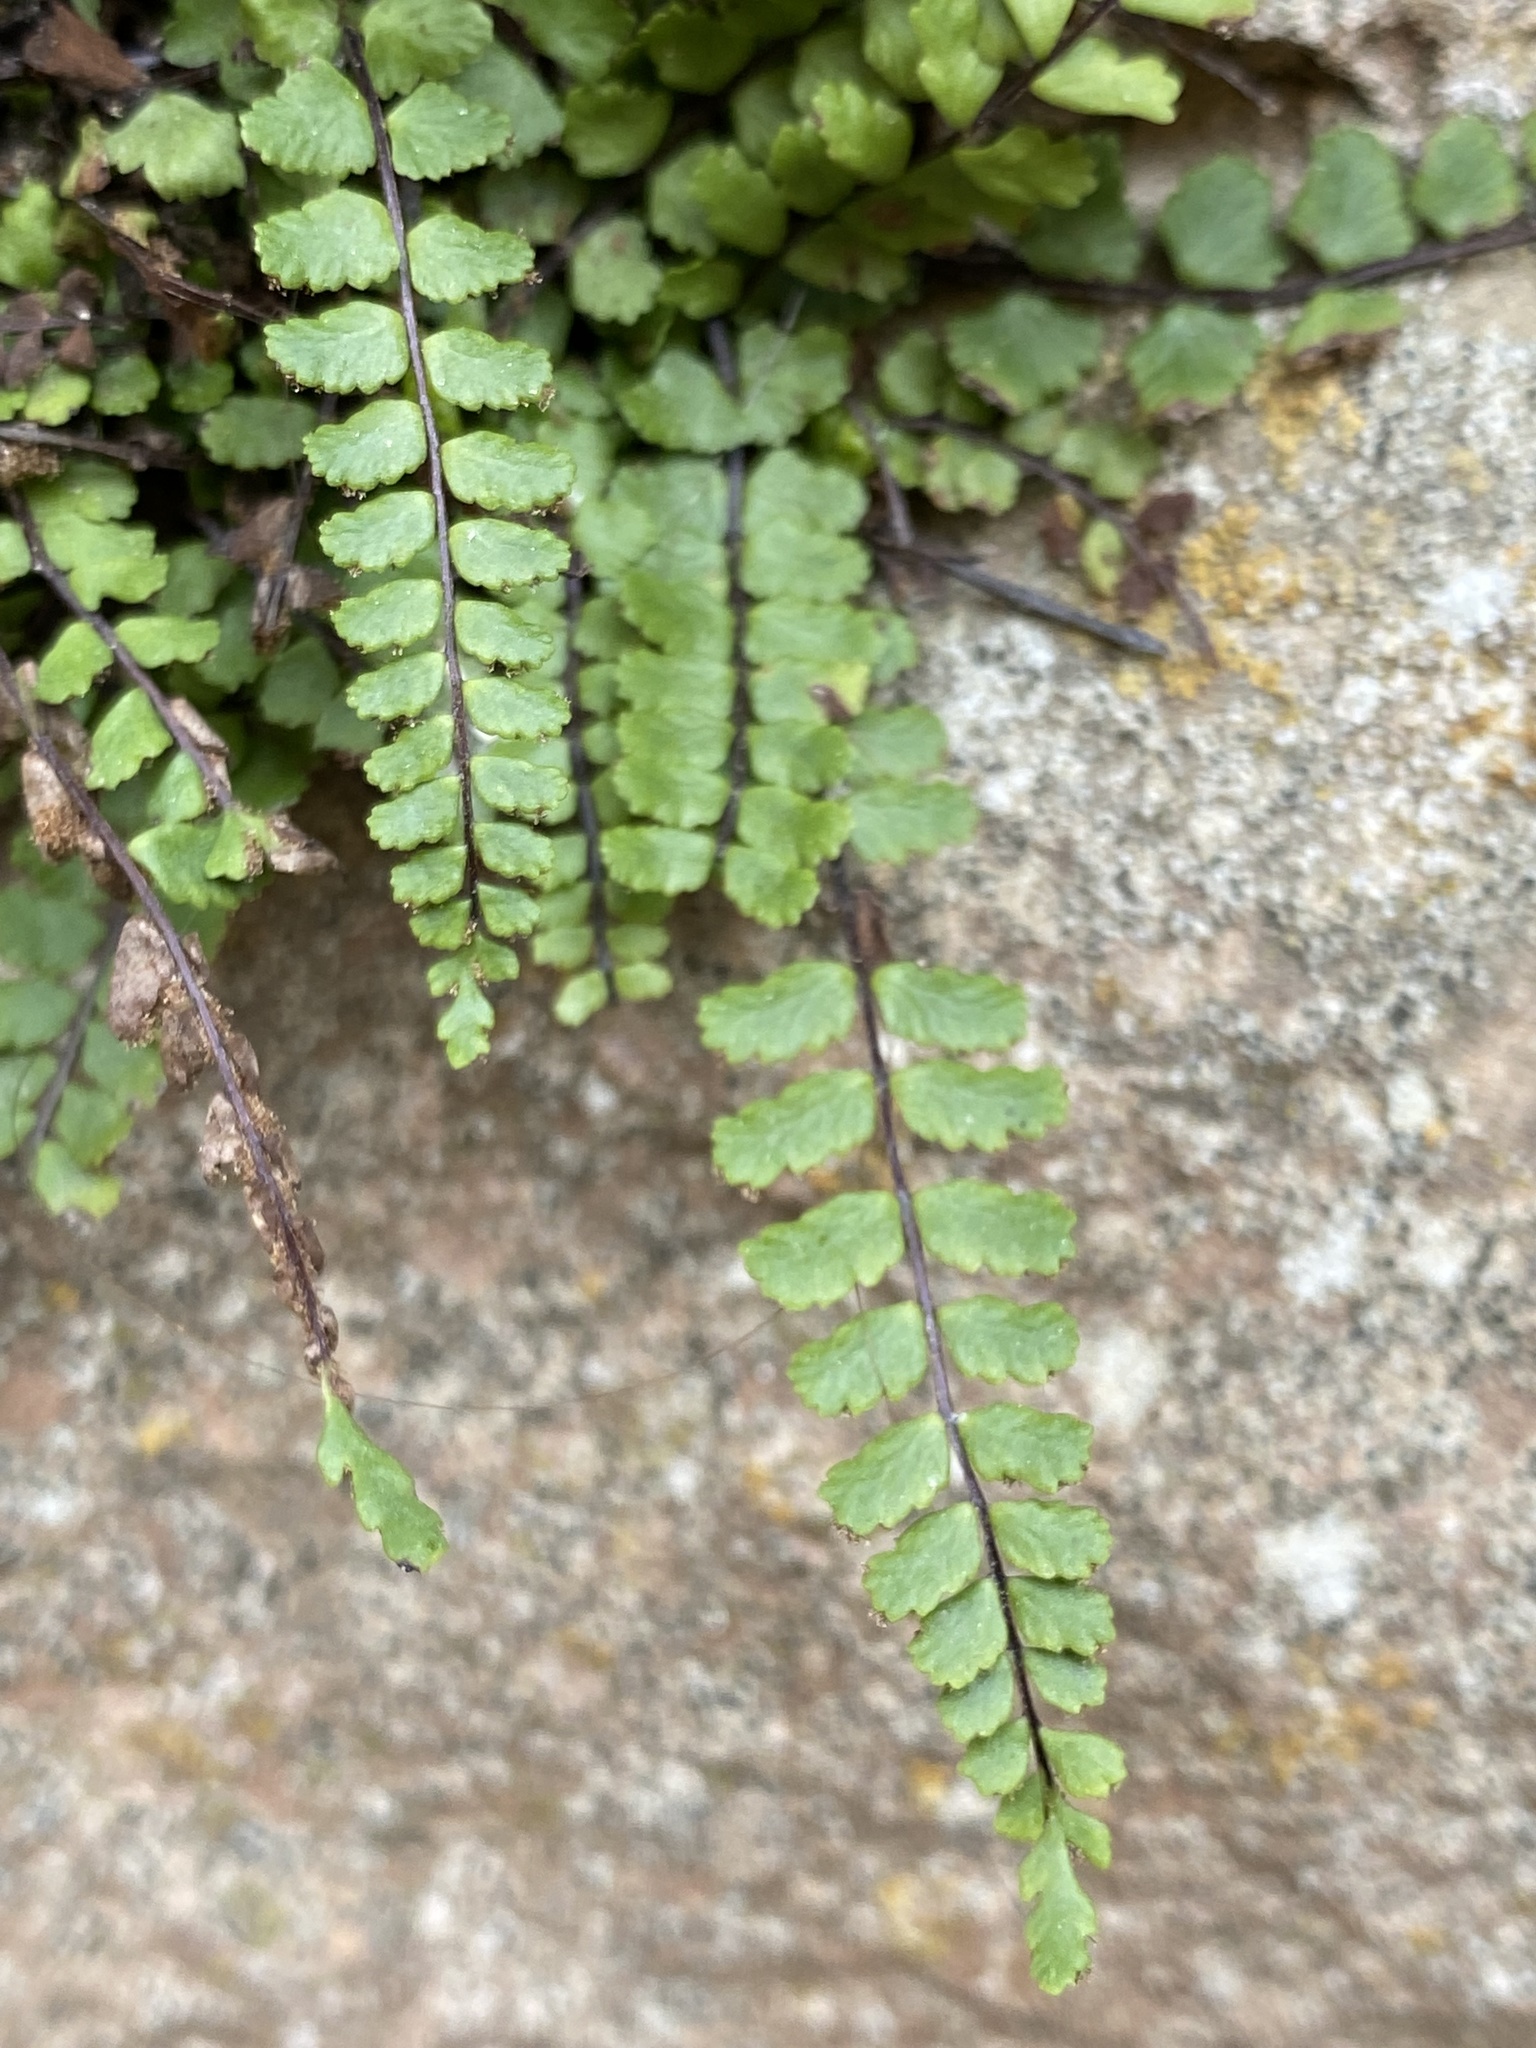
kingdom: Plantae
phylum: Tracheophyta
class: Polypodiopsida
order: Polypodiales
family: Aspleniaceae
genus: Asplenium
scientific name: Asplenium trichomanes
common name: Maidenhair spleenwort
